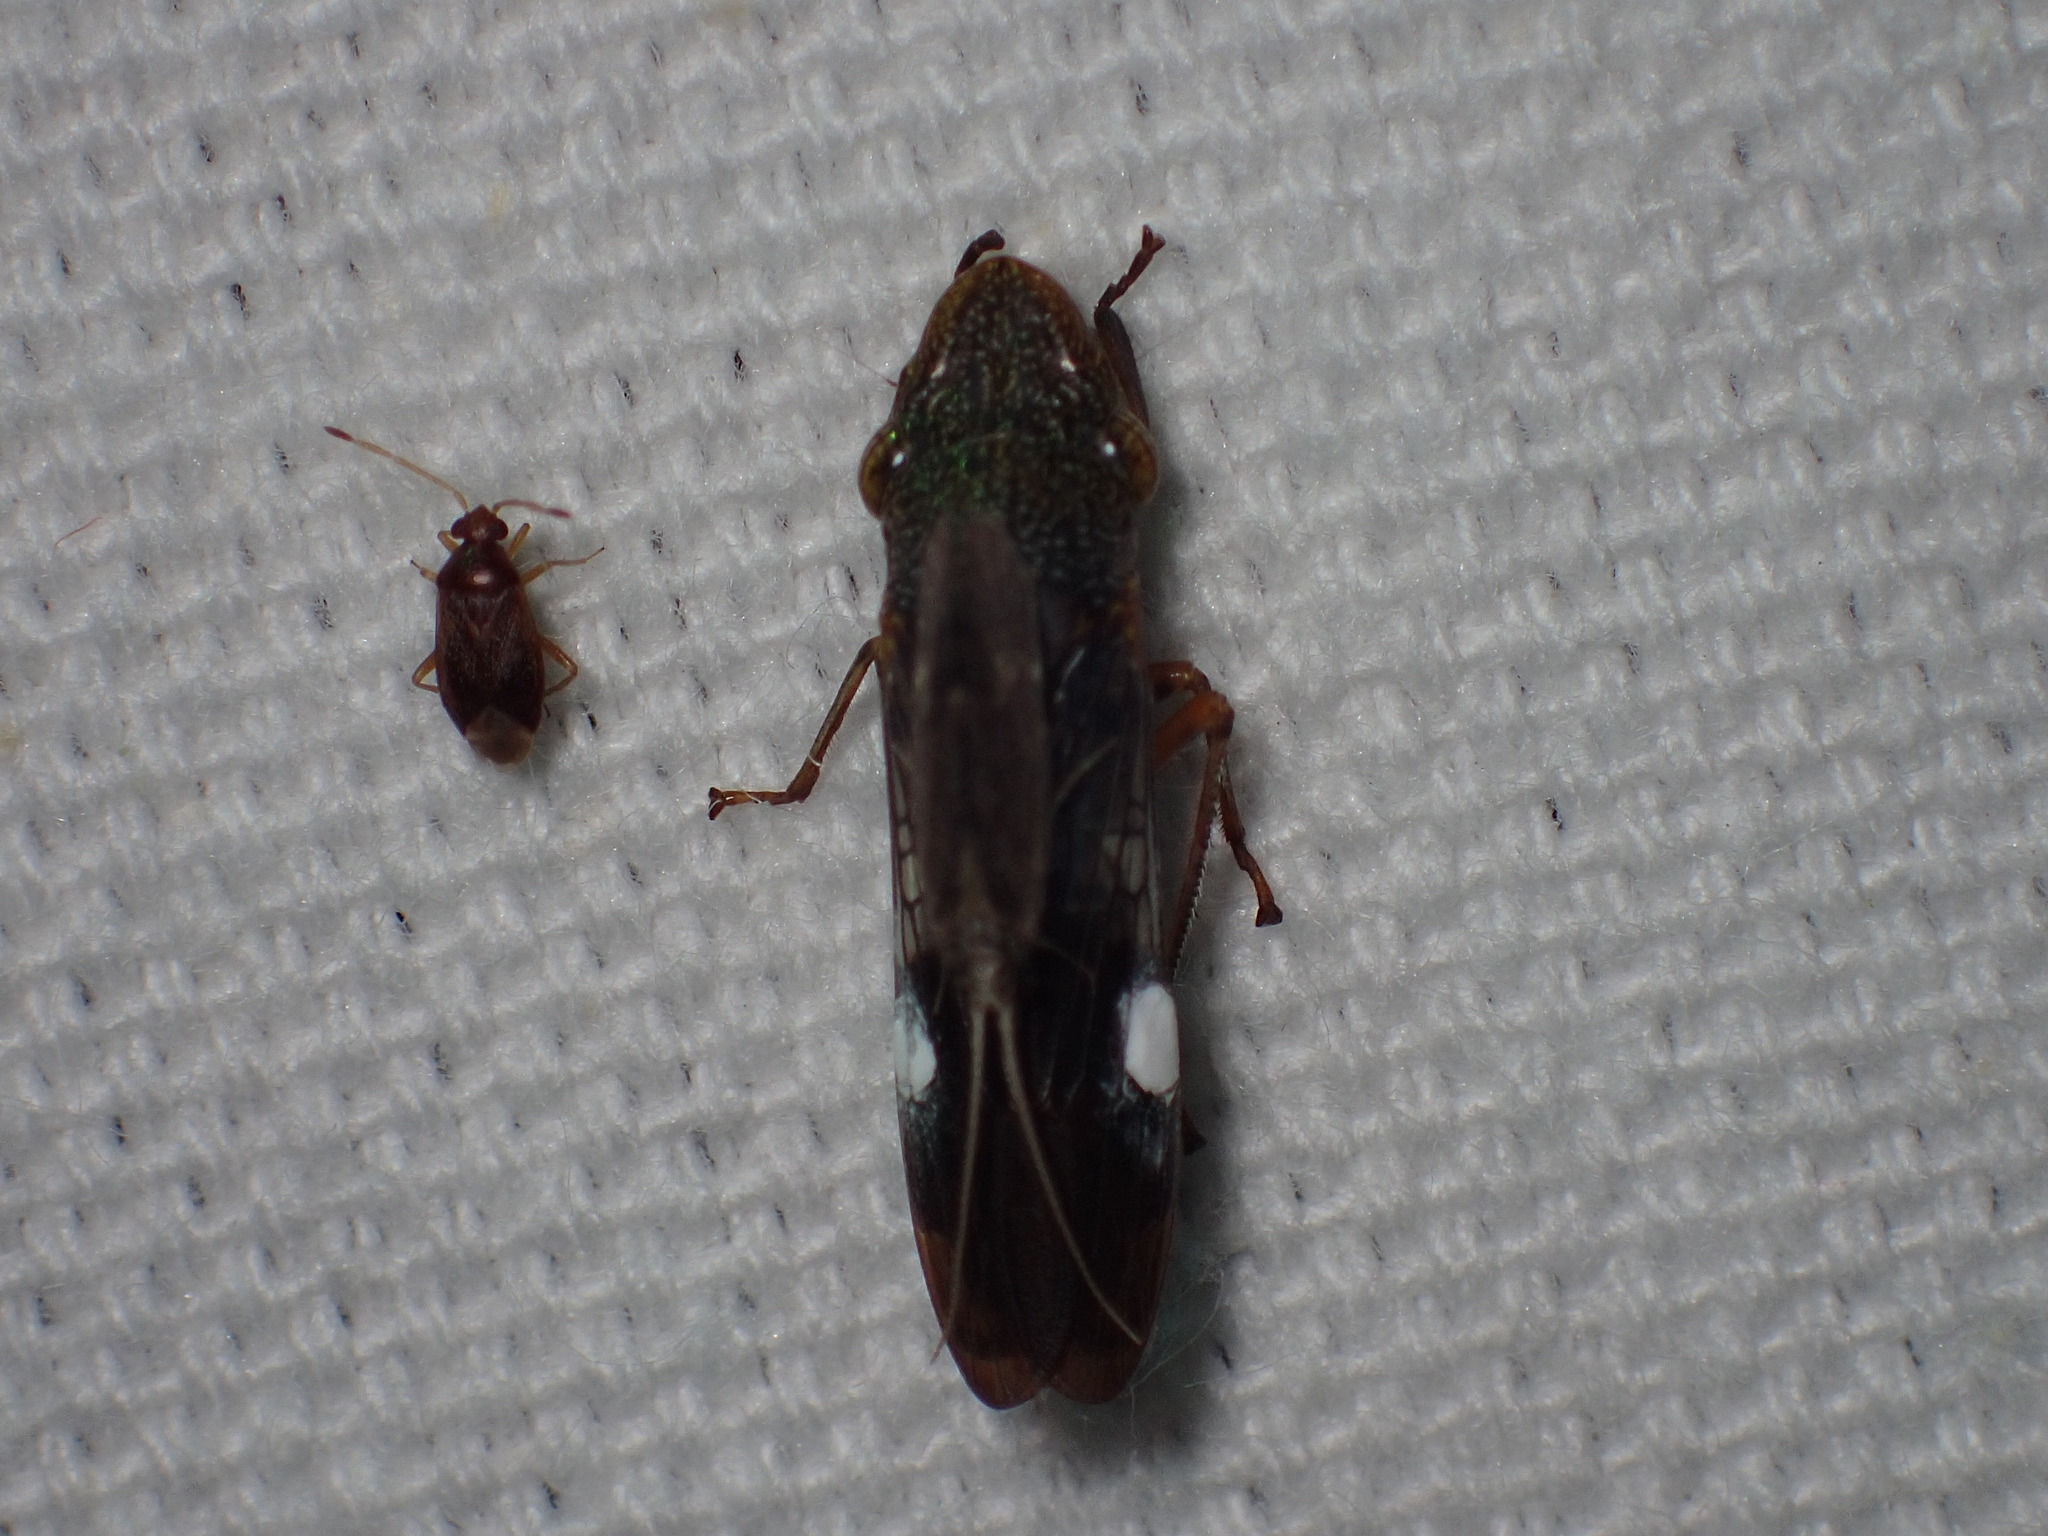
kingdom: Animalia
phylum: Arthropoda
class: Insecta
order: Hemiptera
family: Cicadellidae
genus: Homalodisca
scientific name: Homalodisca vitripennis
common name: Glassy-winged sharpshooter
